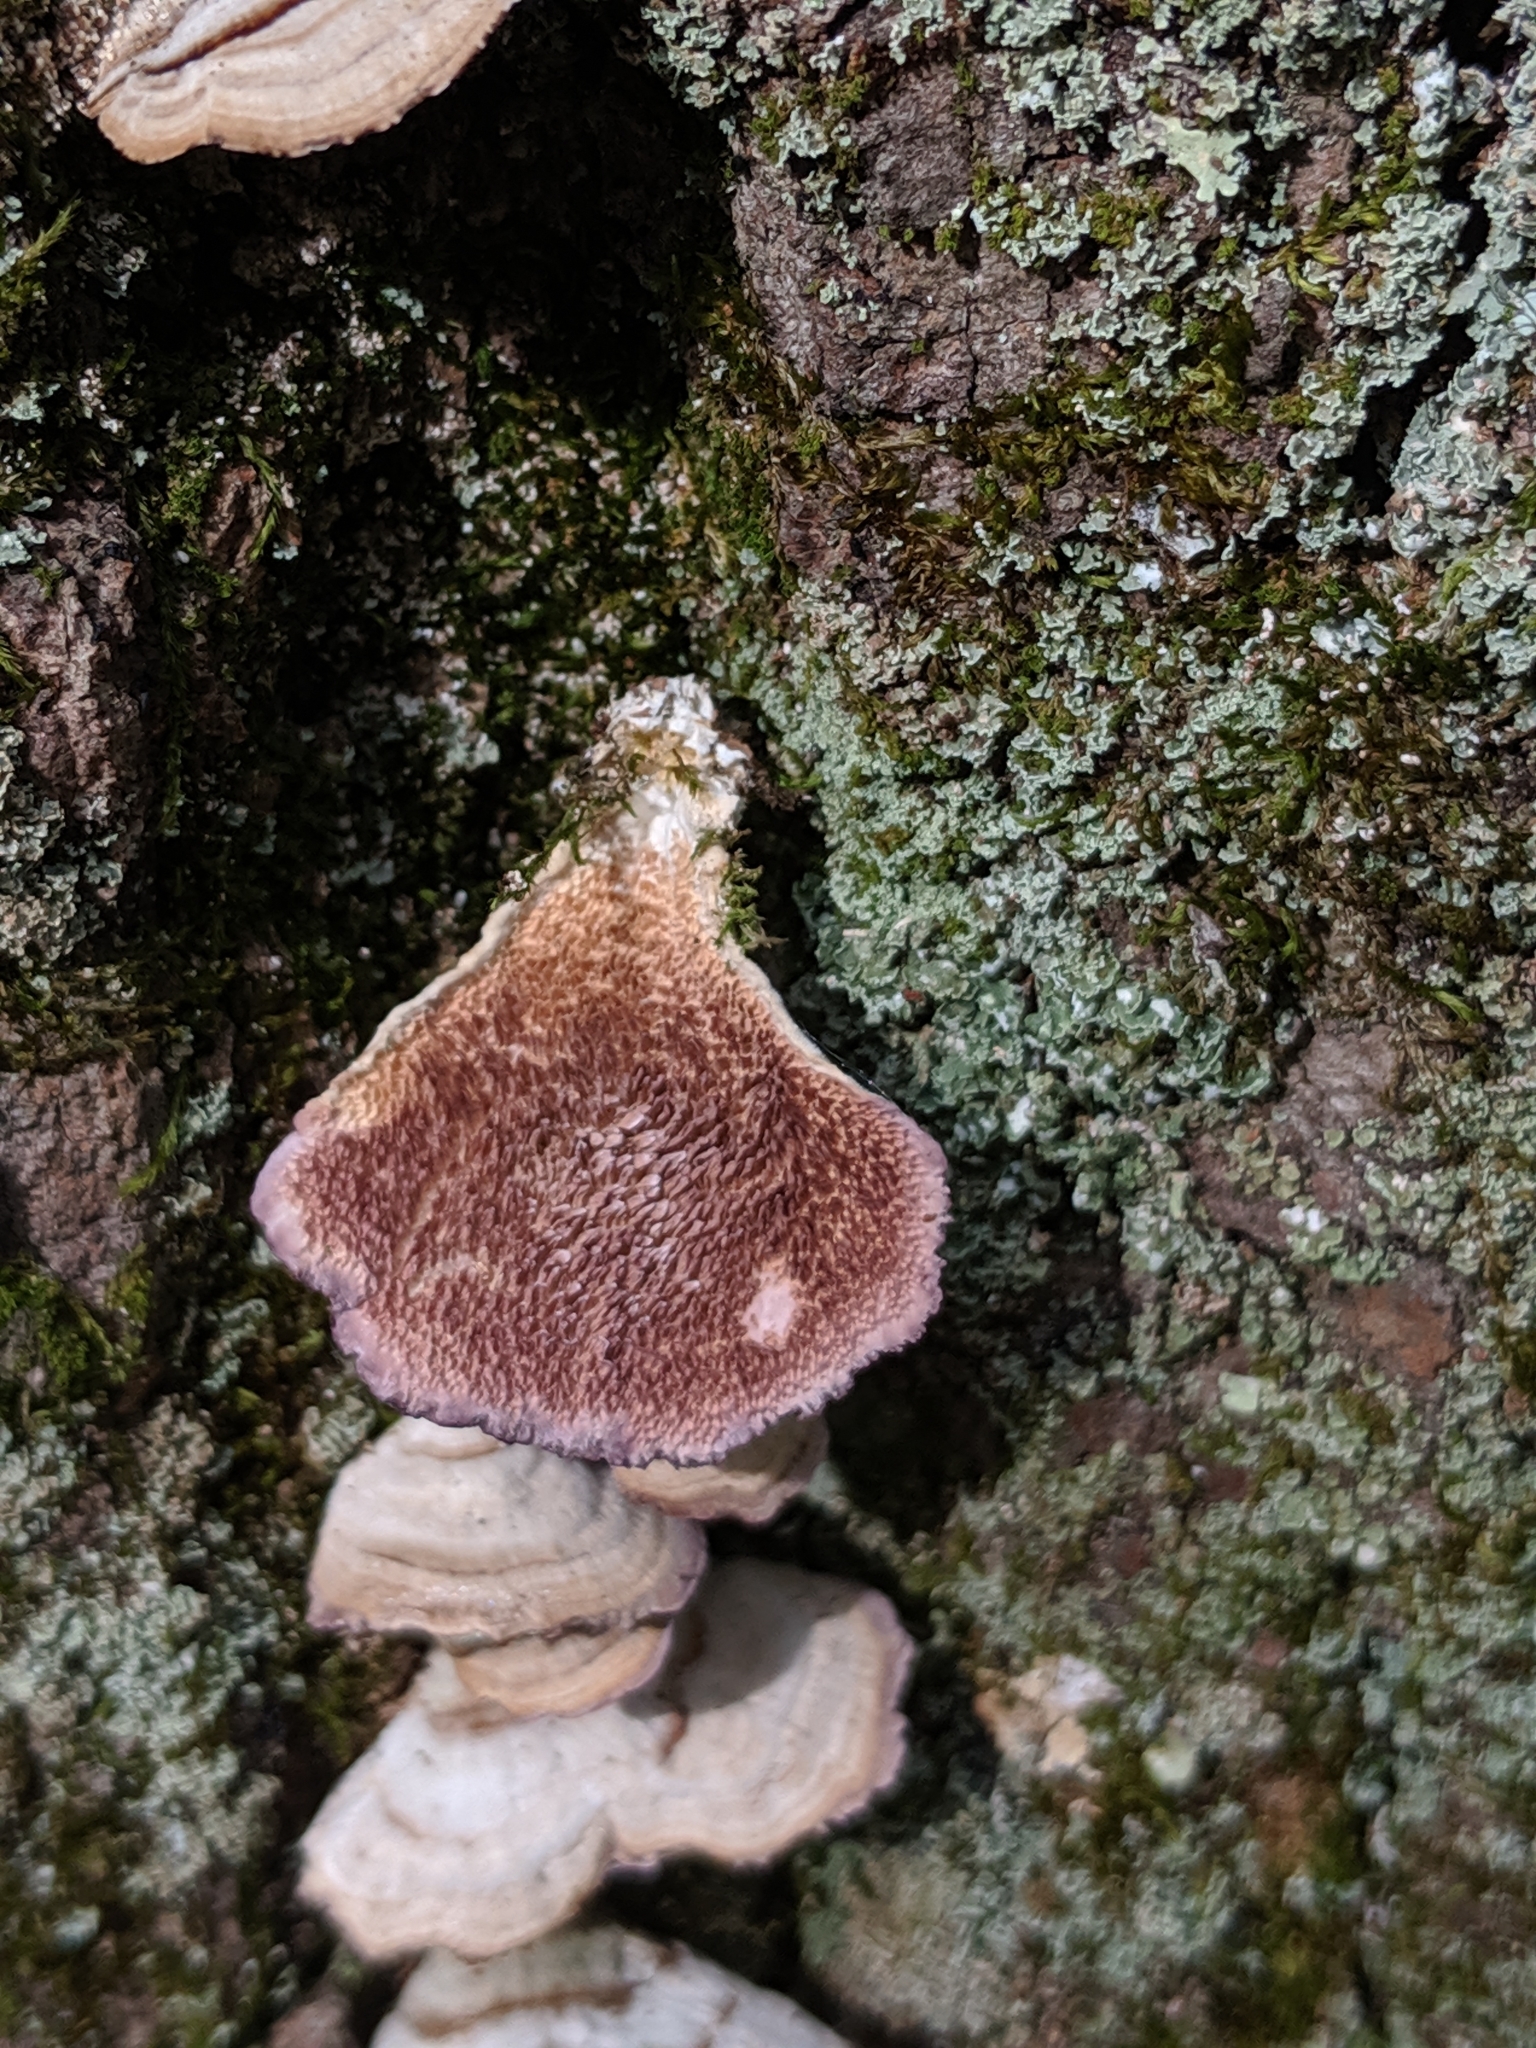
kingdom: Fungi
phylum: Basidiomycota
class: Agaricomycetes
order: Hymenochaetales
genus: Trichaptum
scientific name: Trichaptum biforme
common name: Violet-toothed polypore
